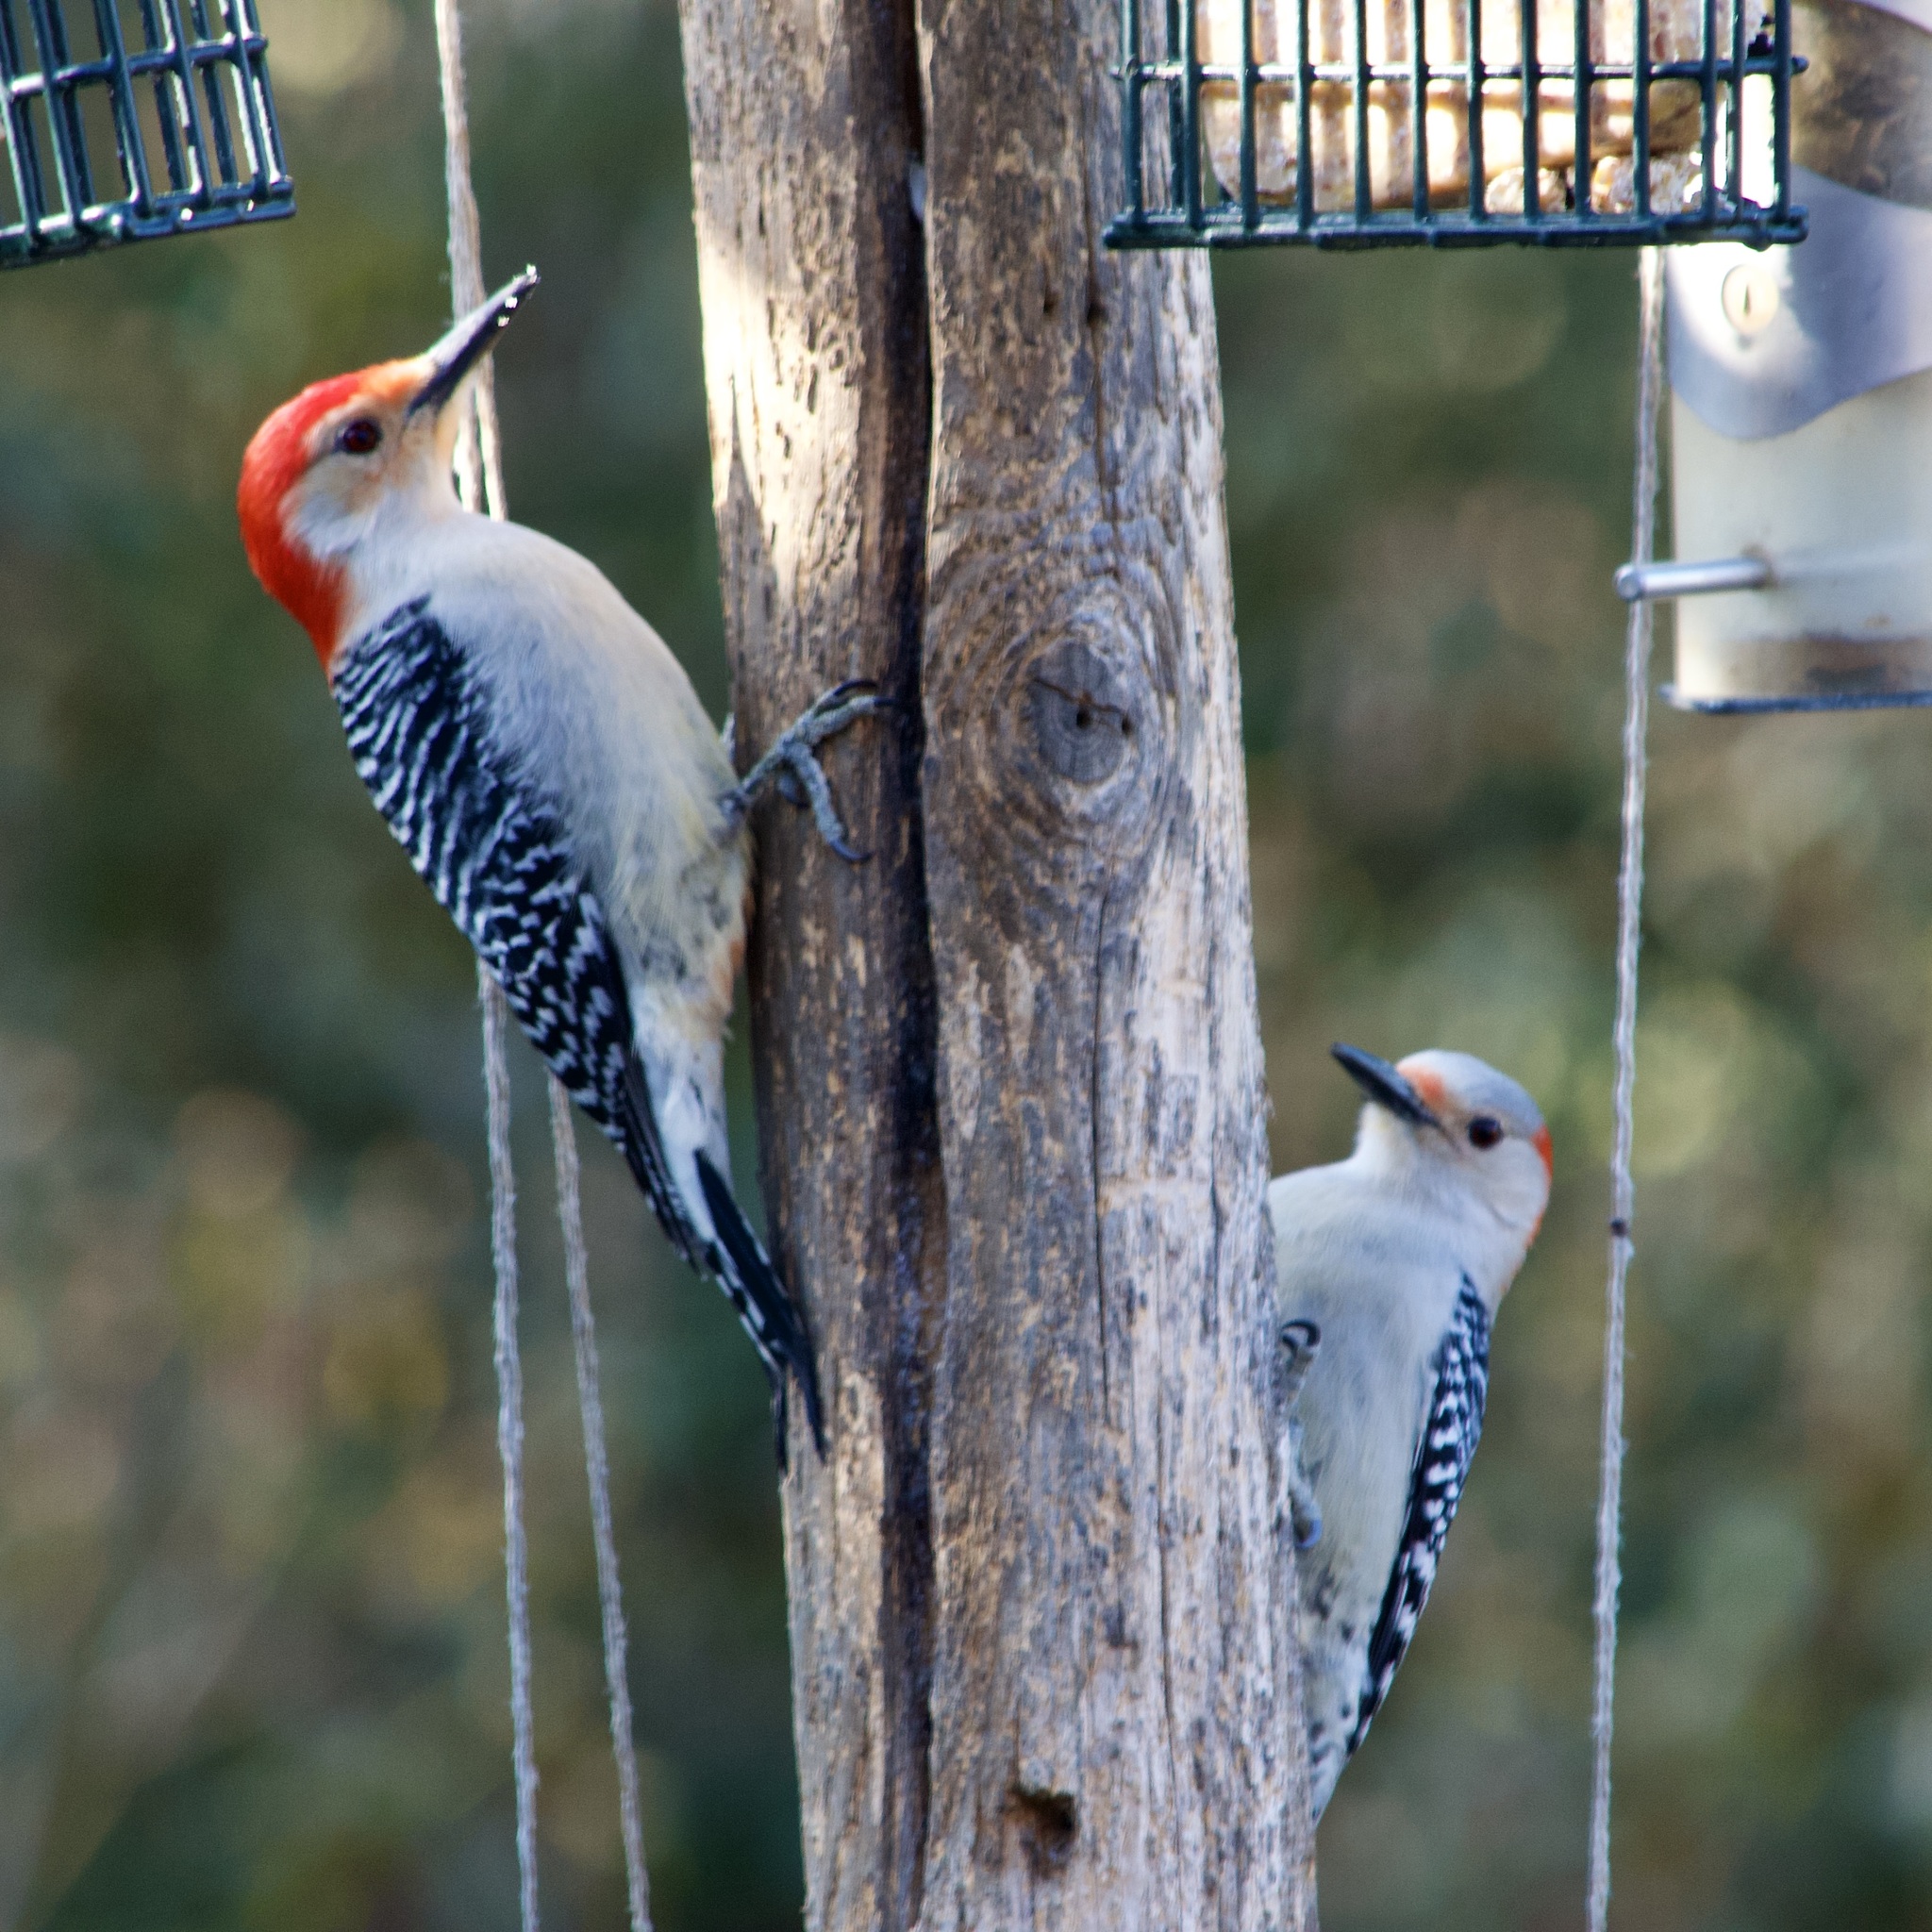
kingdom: Animalia
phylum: Chordata
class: Aves
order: Piciformes
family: Picidae
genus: Melanerpes
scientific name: Melanerpes carolinus
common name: Red-bellied woodpecker
